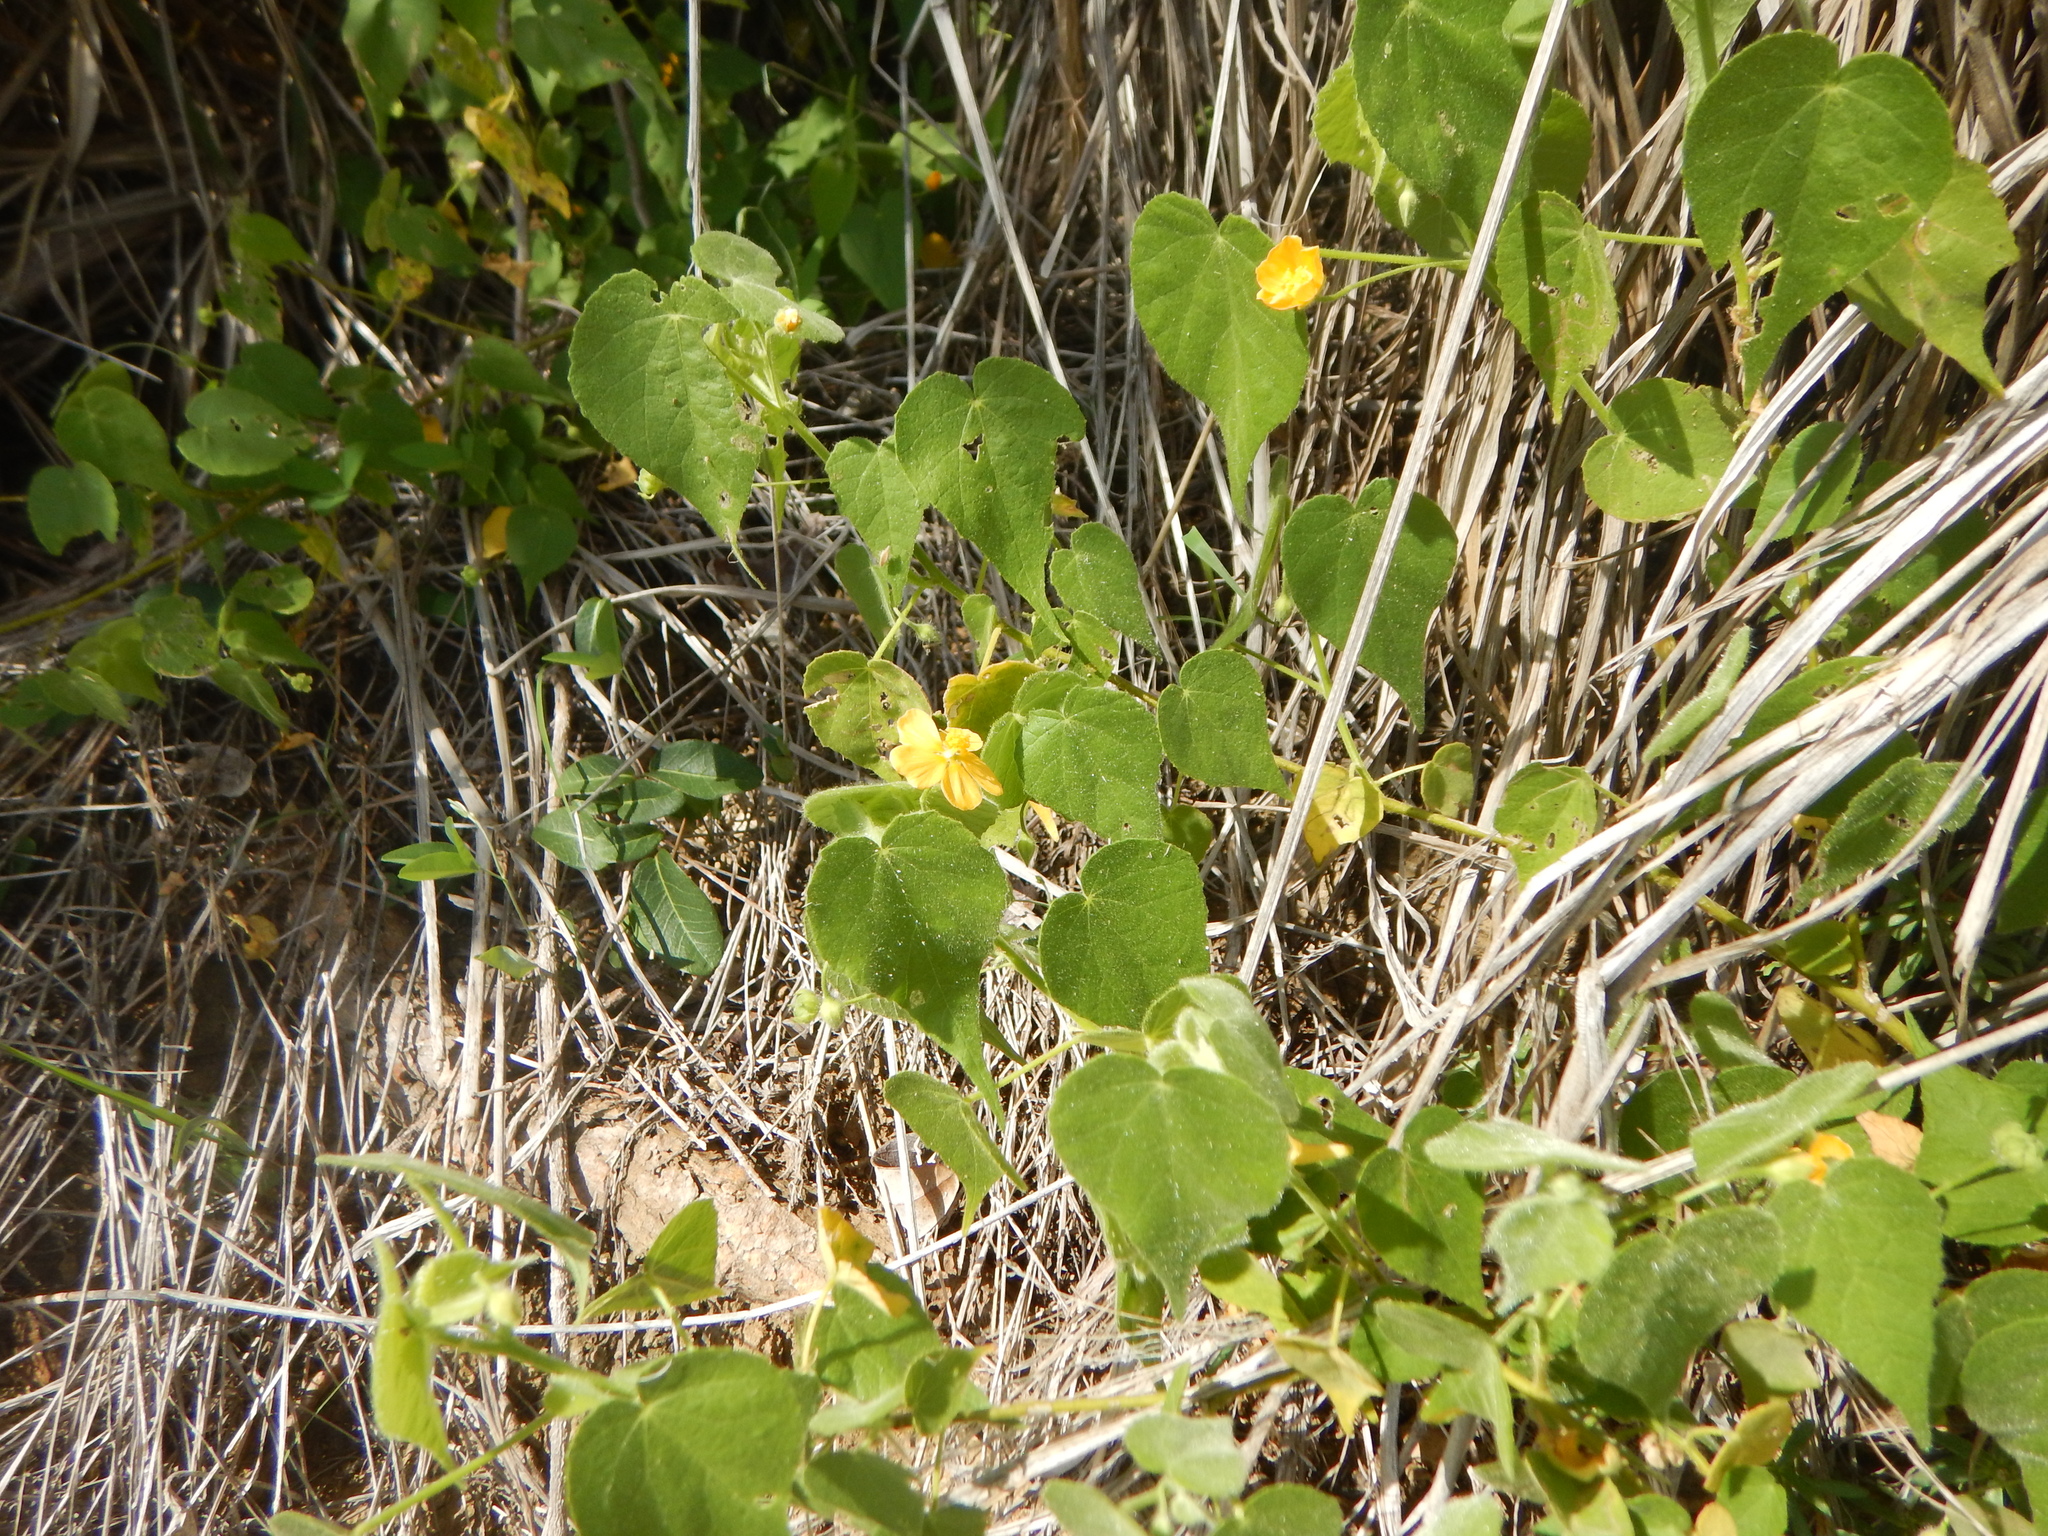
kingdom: Plantae
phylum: Tracheophyta
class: Magnoliopsida
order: Malvales
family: Malvaceae
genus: Abutilon
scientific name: Abutilon viscosum
